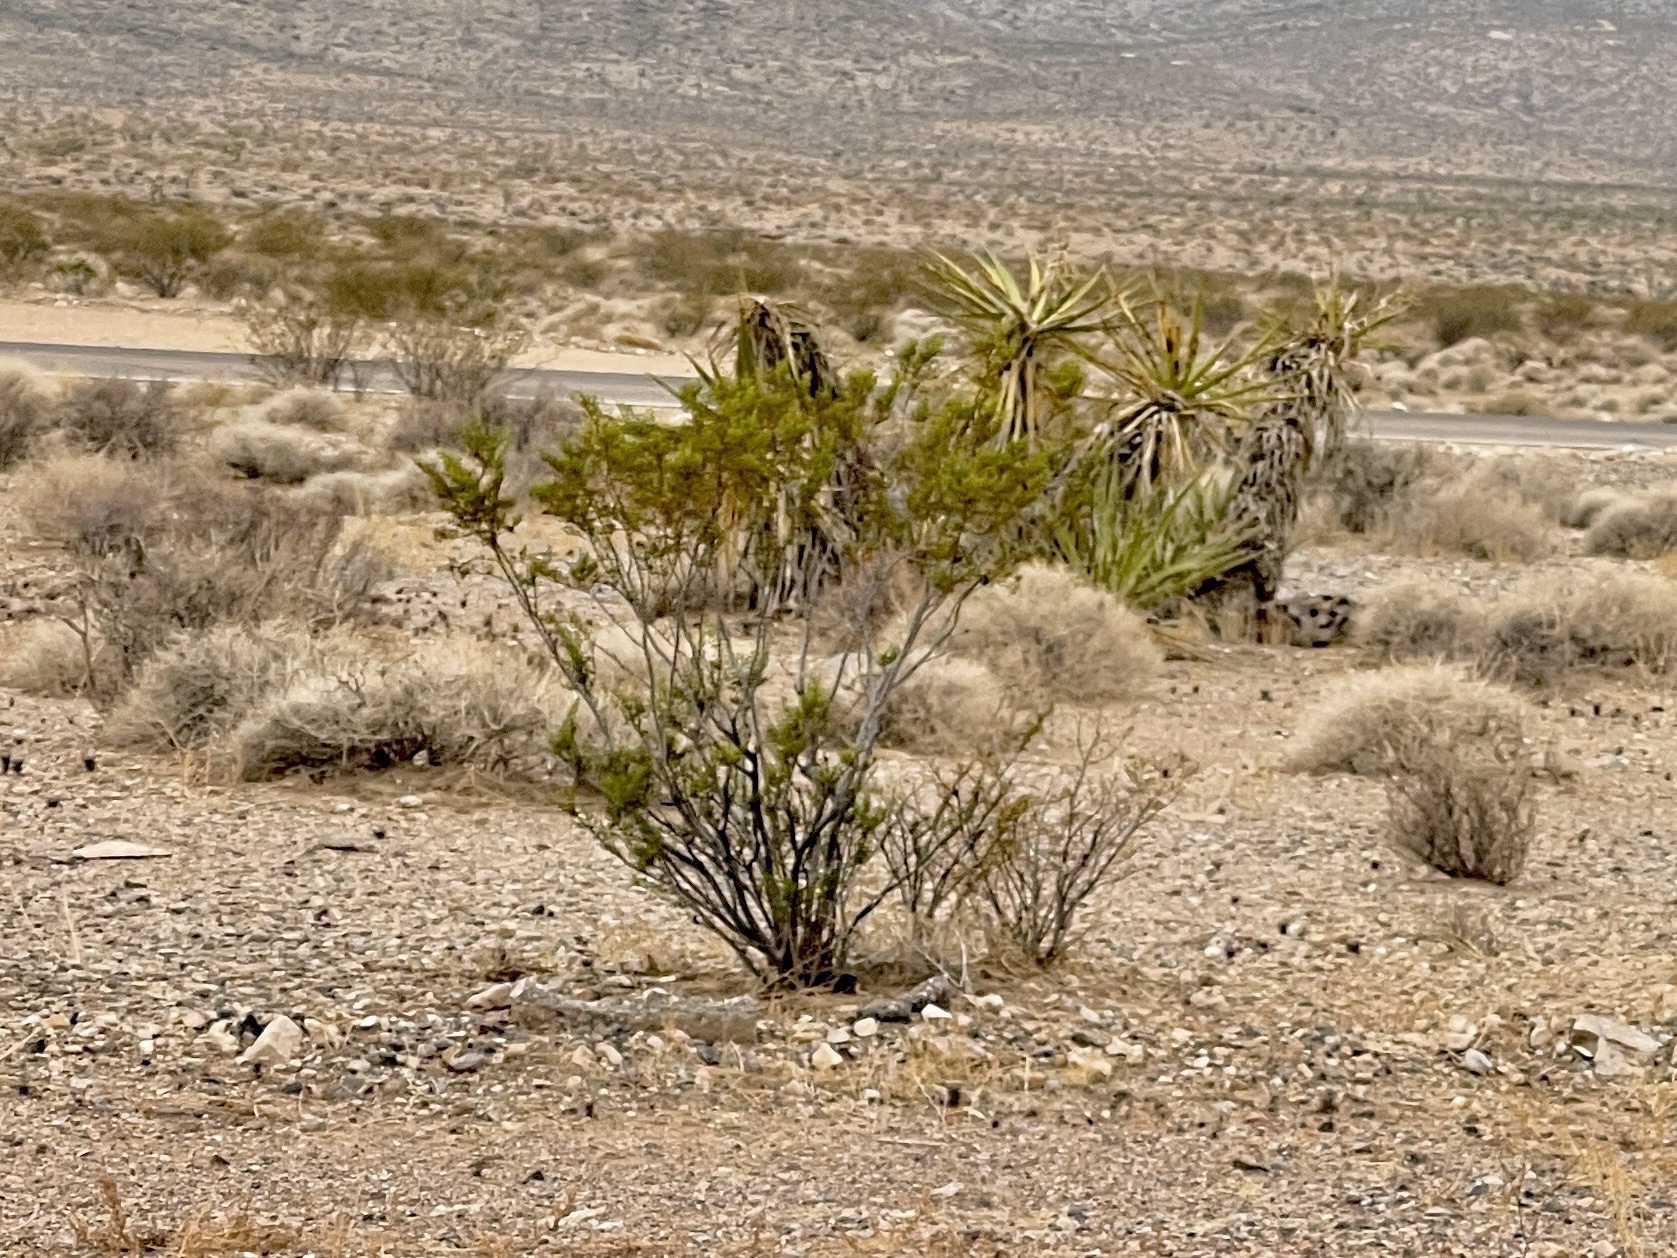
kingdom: Plantae
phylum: Tracheophyta
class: Magnoliopsida
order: Zygophyllales
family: Zygophyllaceae
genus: Larrea
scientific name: Larrea tridentata
